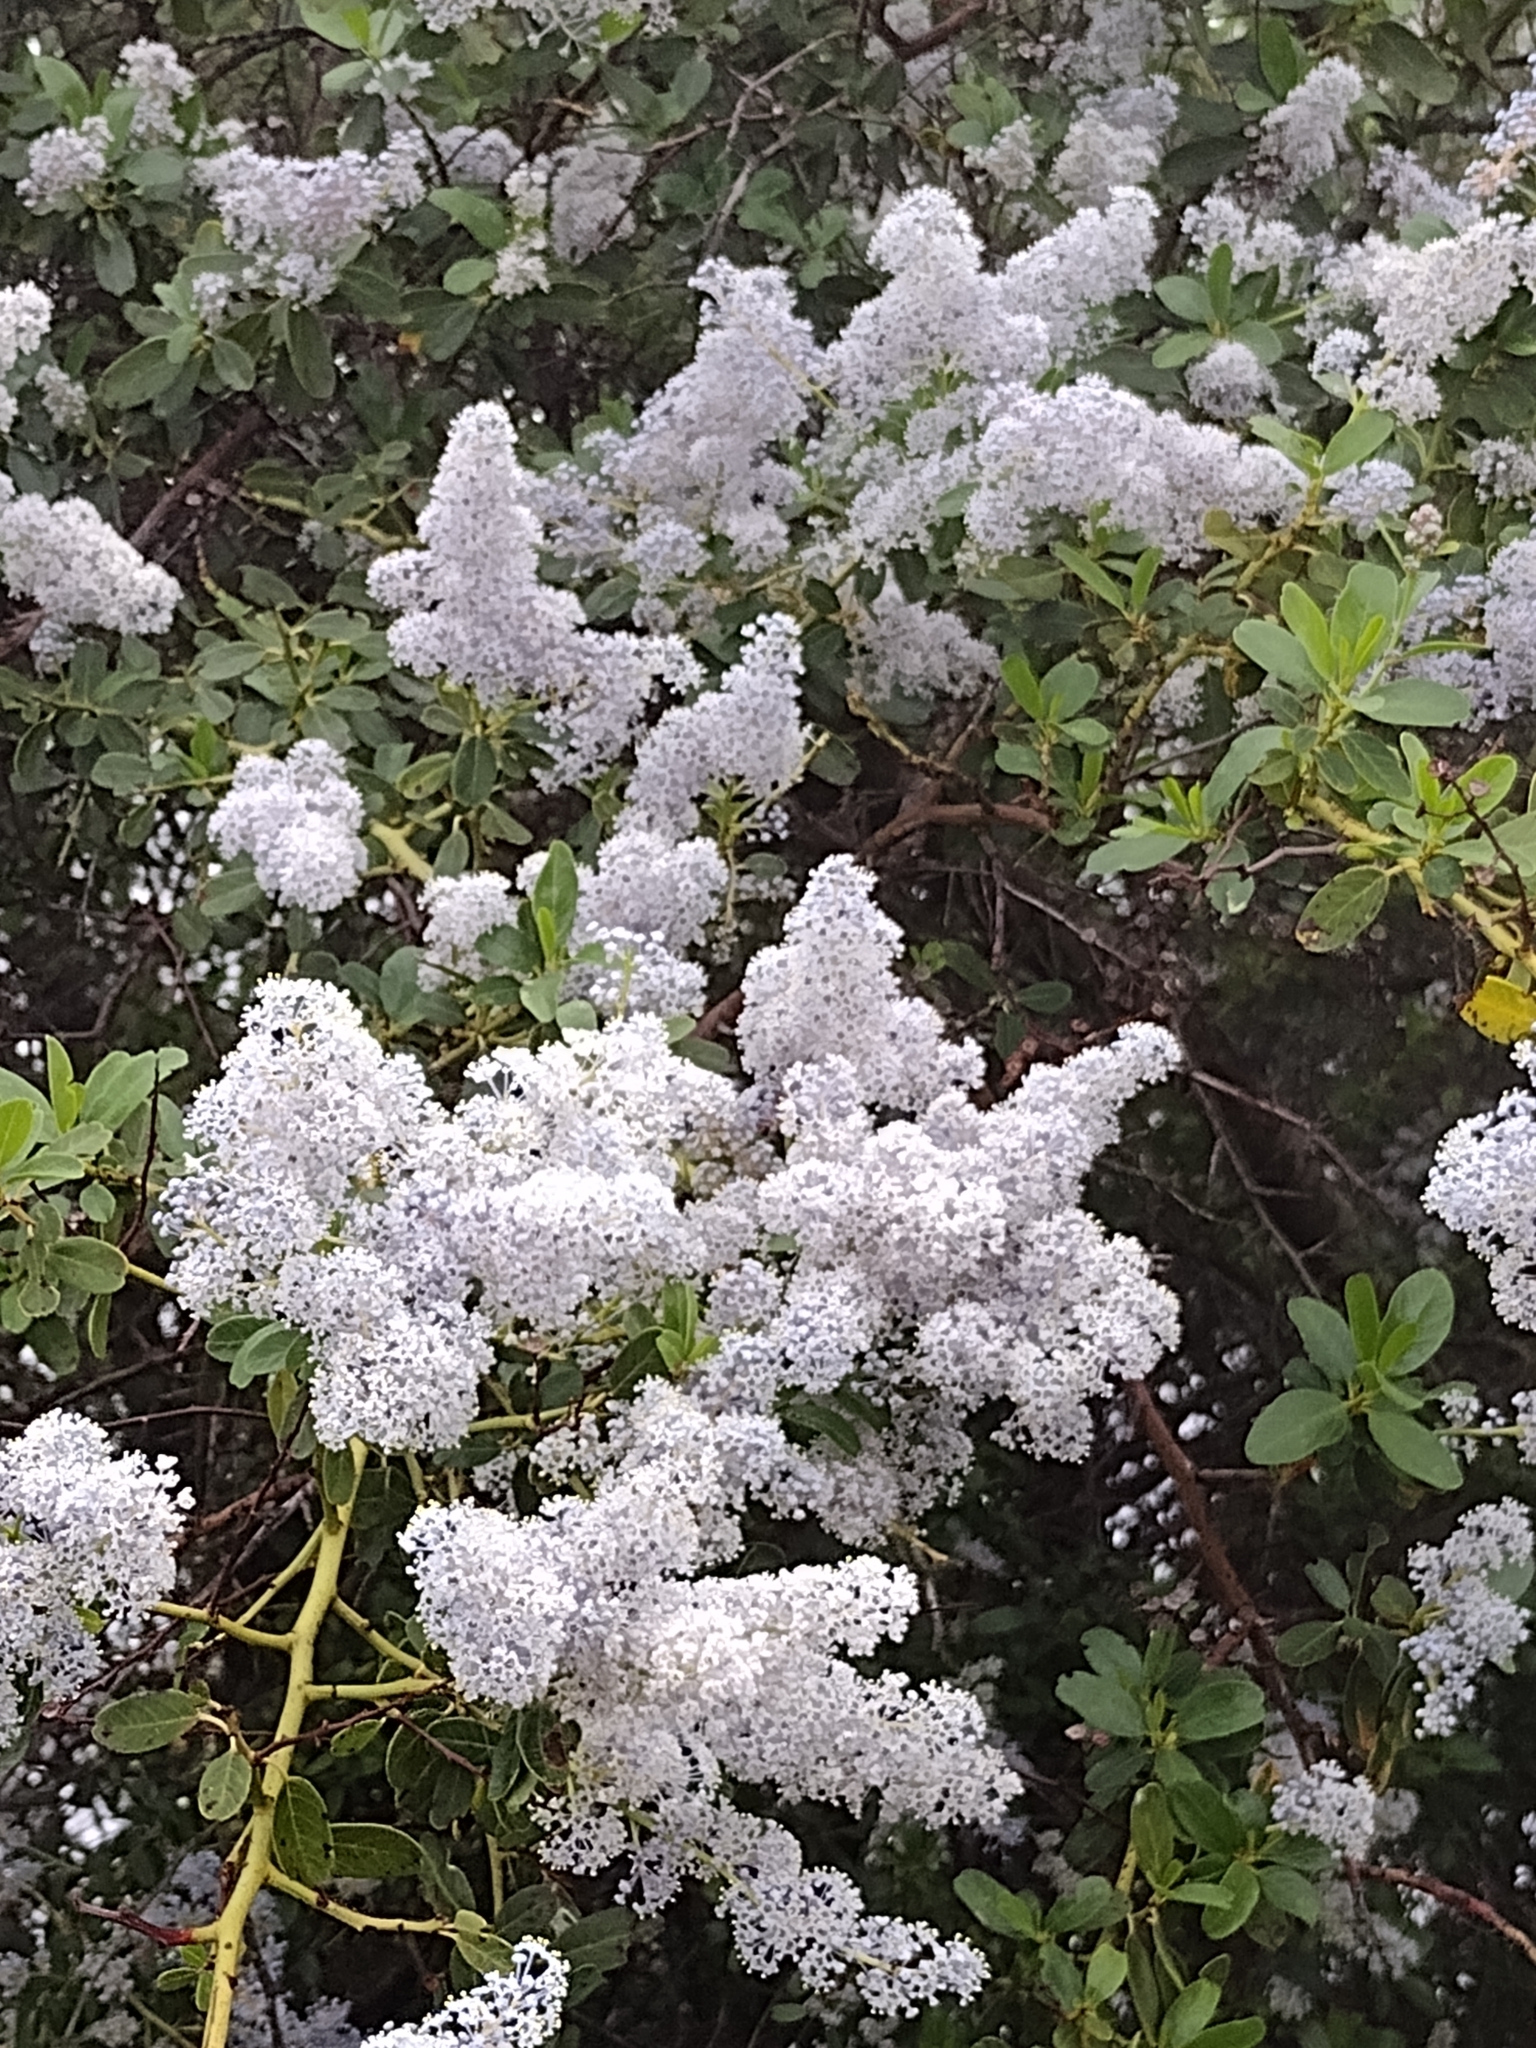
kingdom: Plantae
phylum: Tracheophyta
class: Magnoliopsida
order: Rosales
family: Rhamnaceae
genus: Ceanothus
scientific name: Ceanothus spinosus
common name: Greenbark whitethorn
